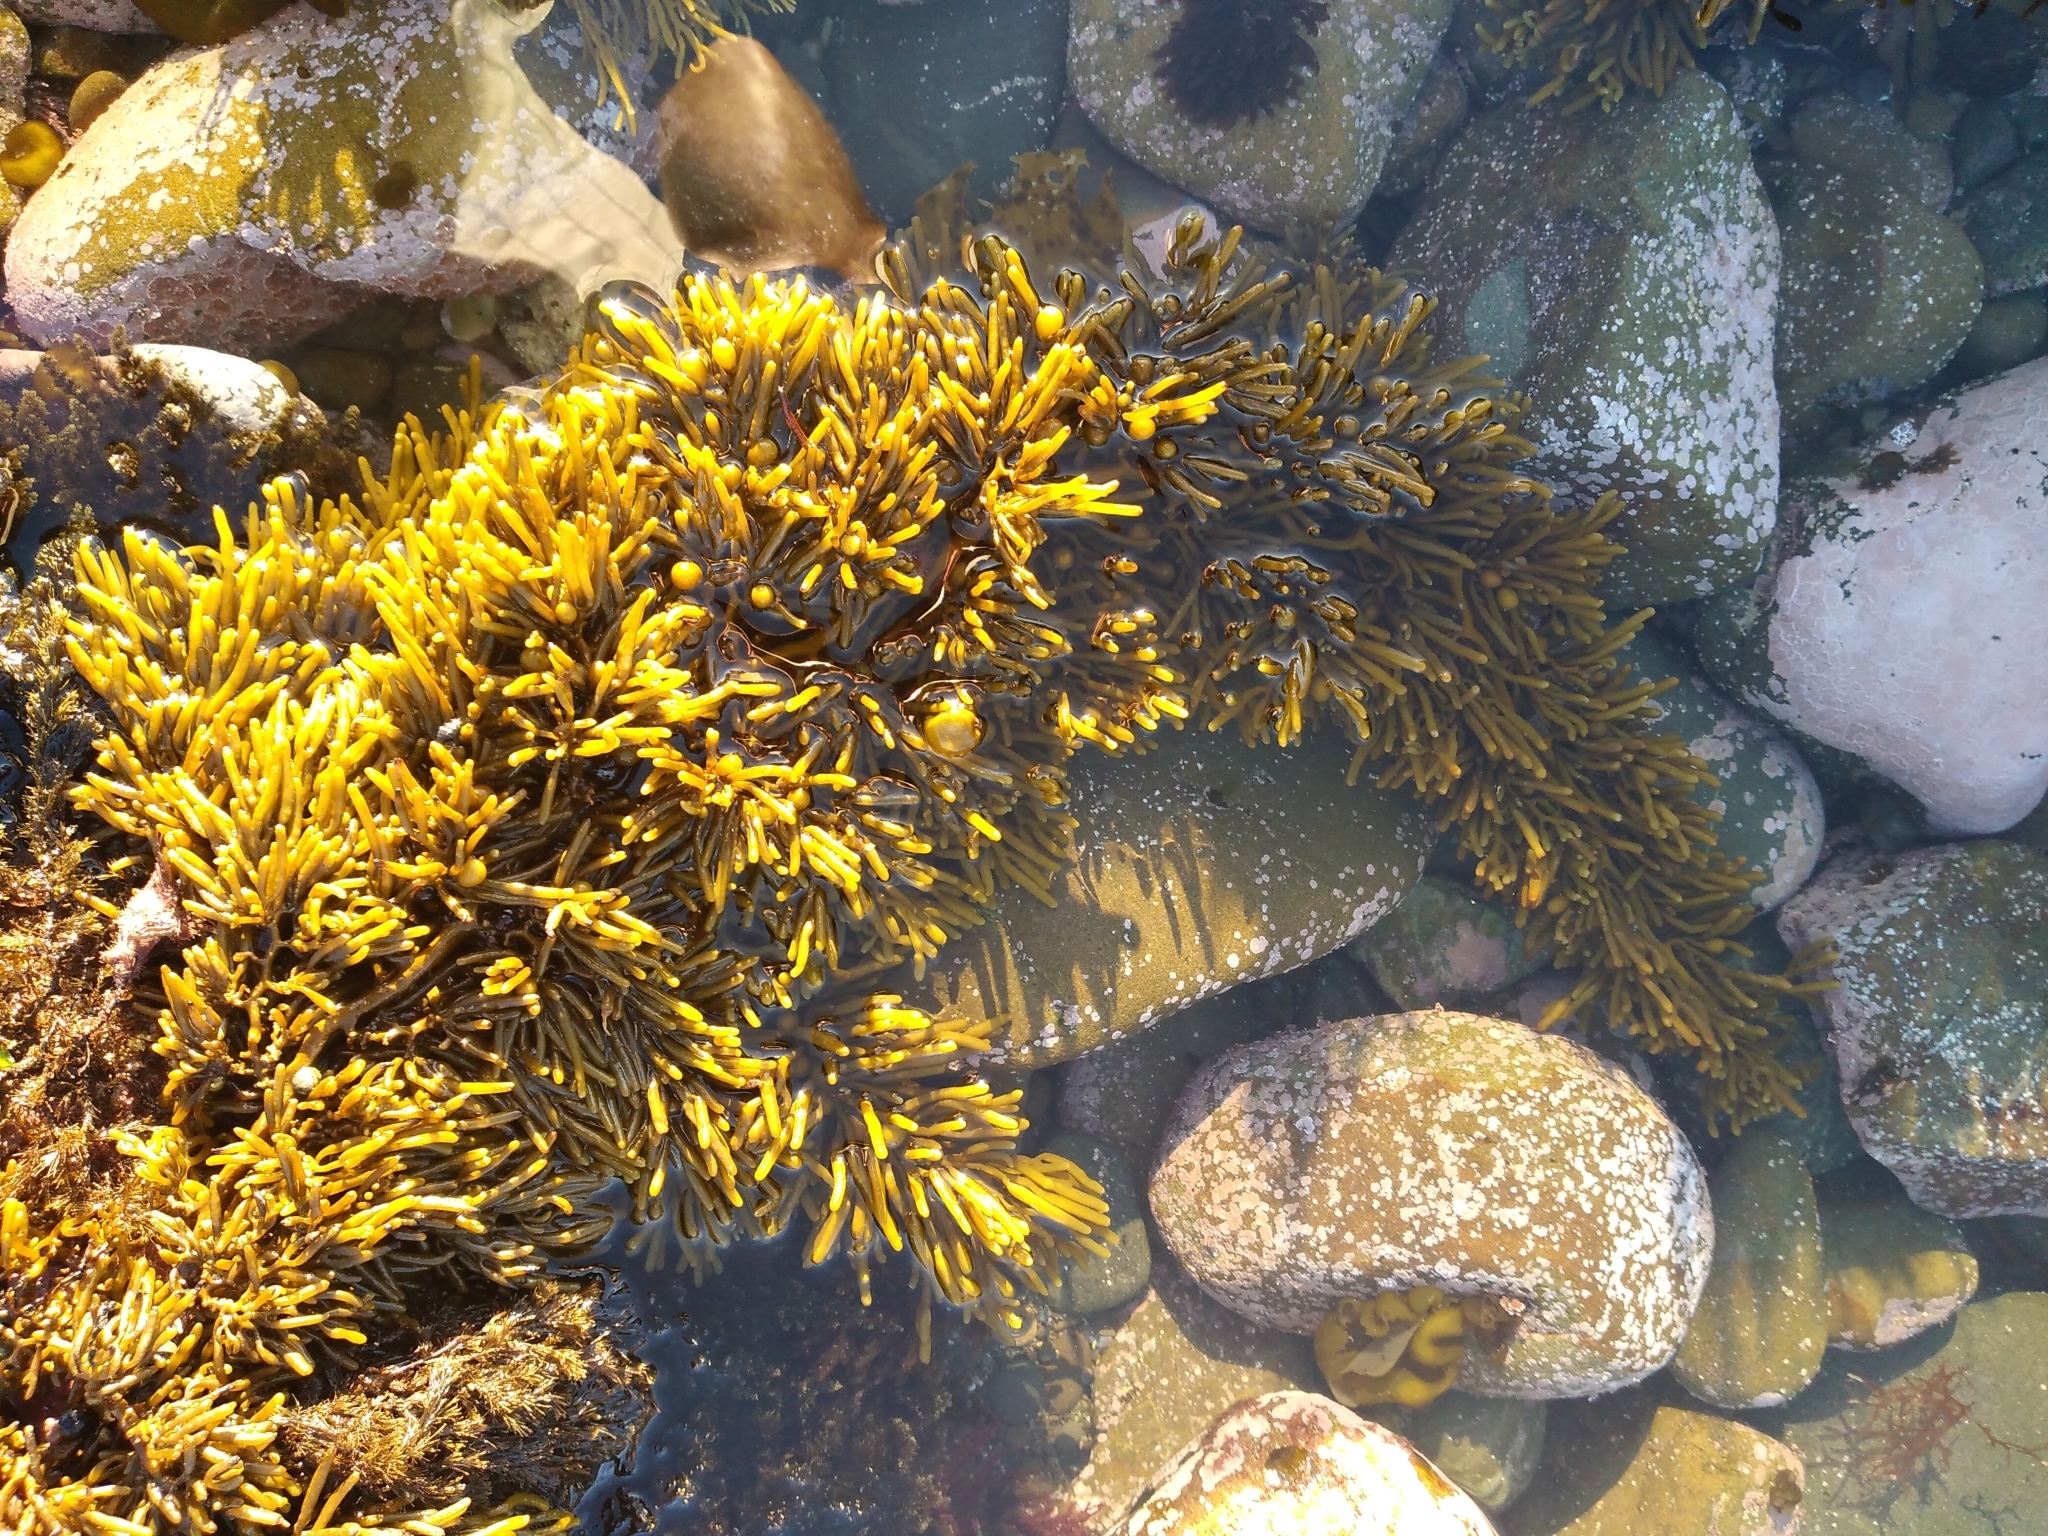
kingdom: Chromista
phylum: Ochrophyta
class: Phaeophyceae
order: Fucales
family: Sargassaceae
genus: Cystophora
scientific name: Cystophora torulosa
